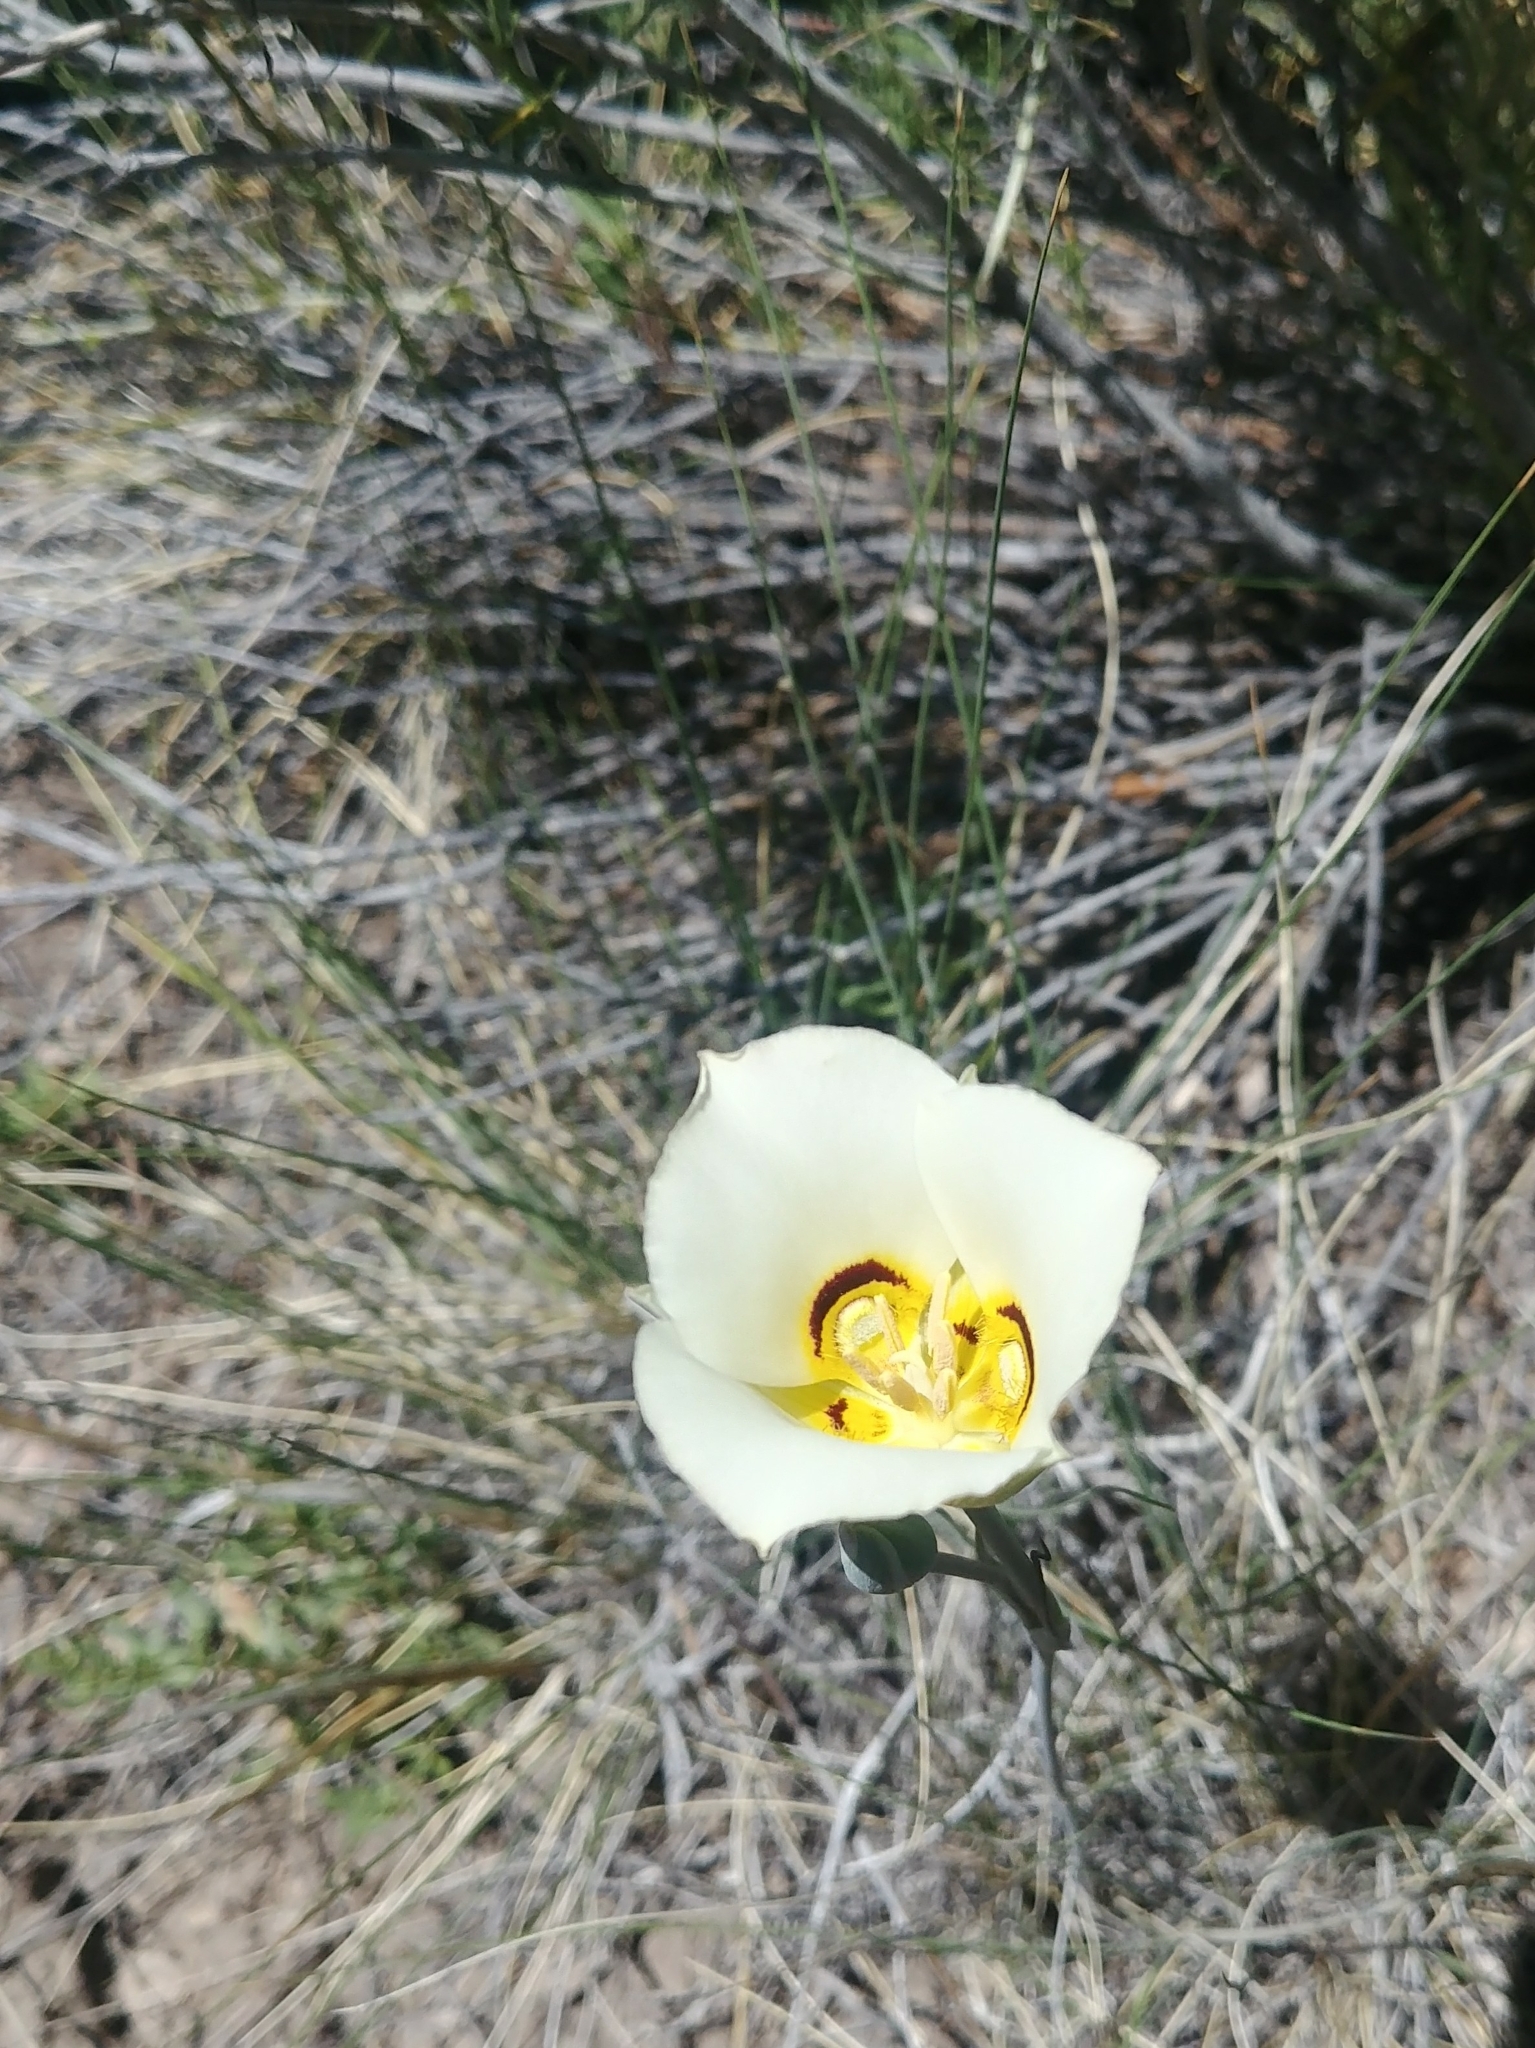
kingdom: Plantae
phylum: Tracheophyta
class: Liliopsida
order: Liliales
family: Liliaceae
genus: Calochortus
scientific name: Calochortus nuttallii
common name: Sego-lily
